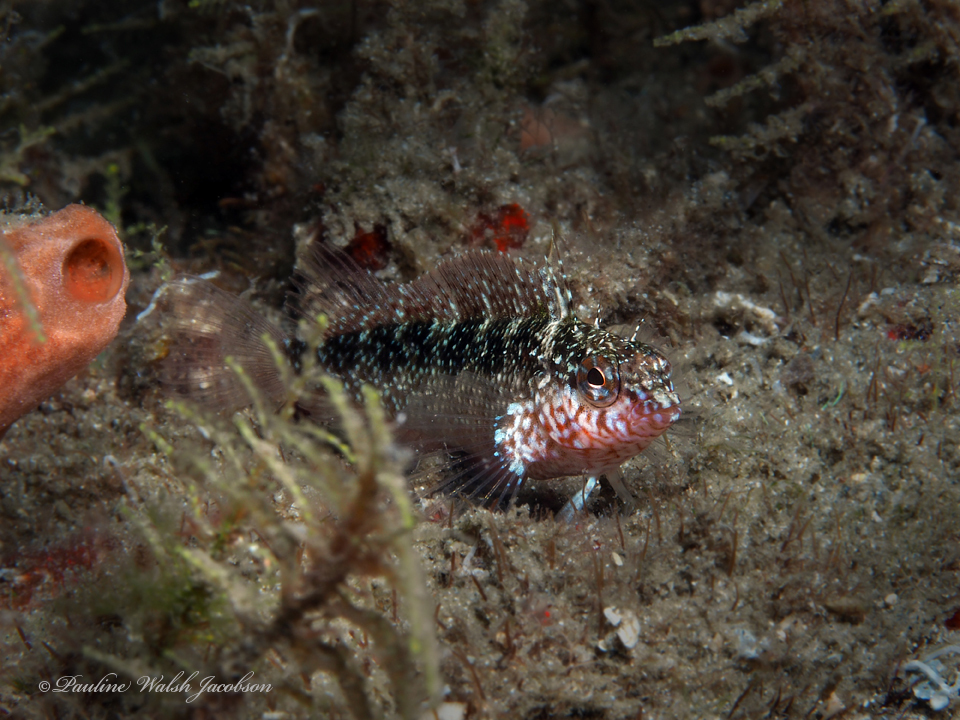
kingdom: Animalia
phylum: Chordata
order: Perciformes
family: Labrisomidae
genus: Malacoctenus
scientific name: Malacoctenus macropus
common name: Rosy blenny
